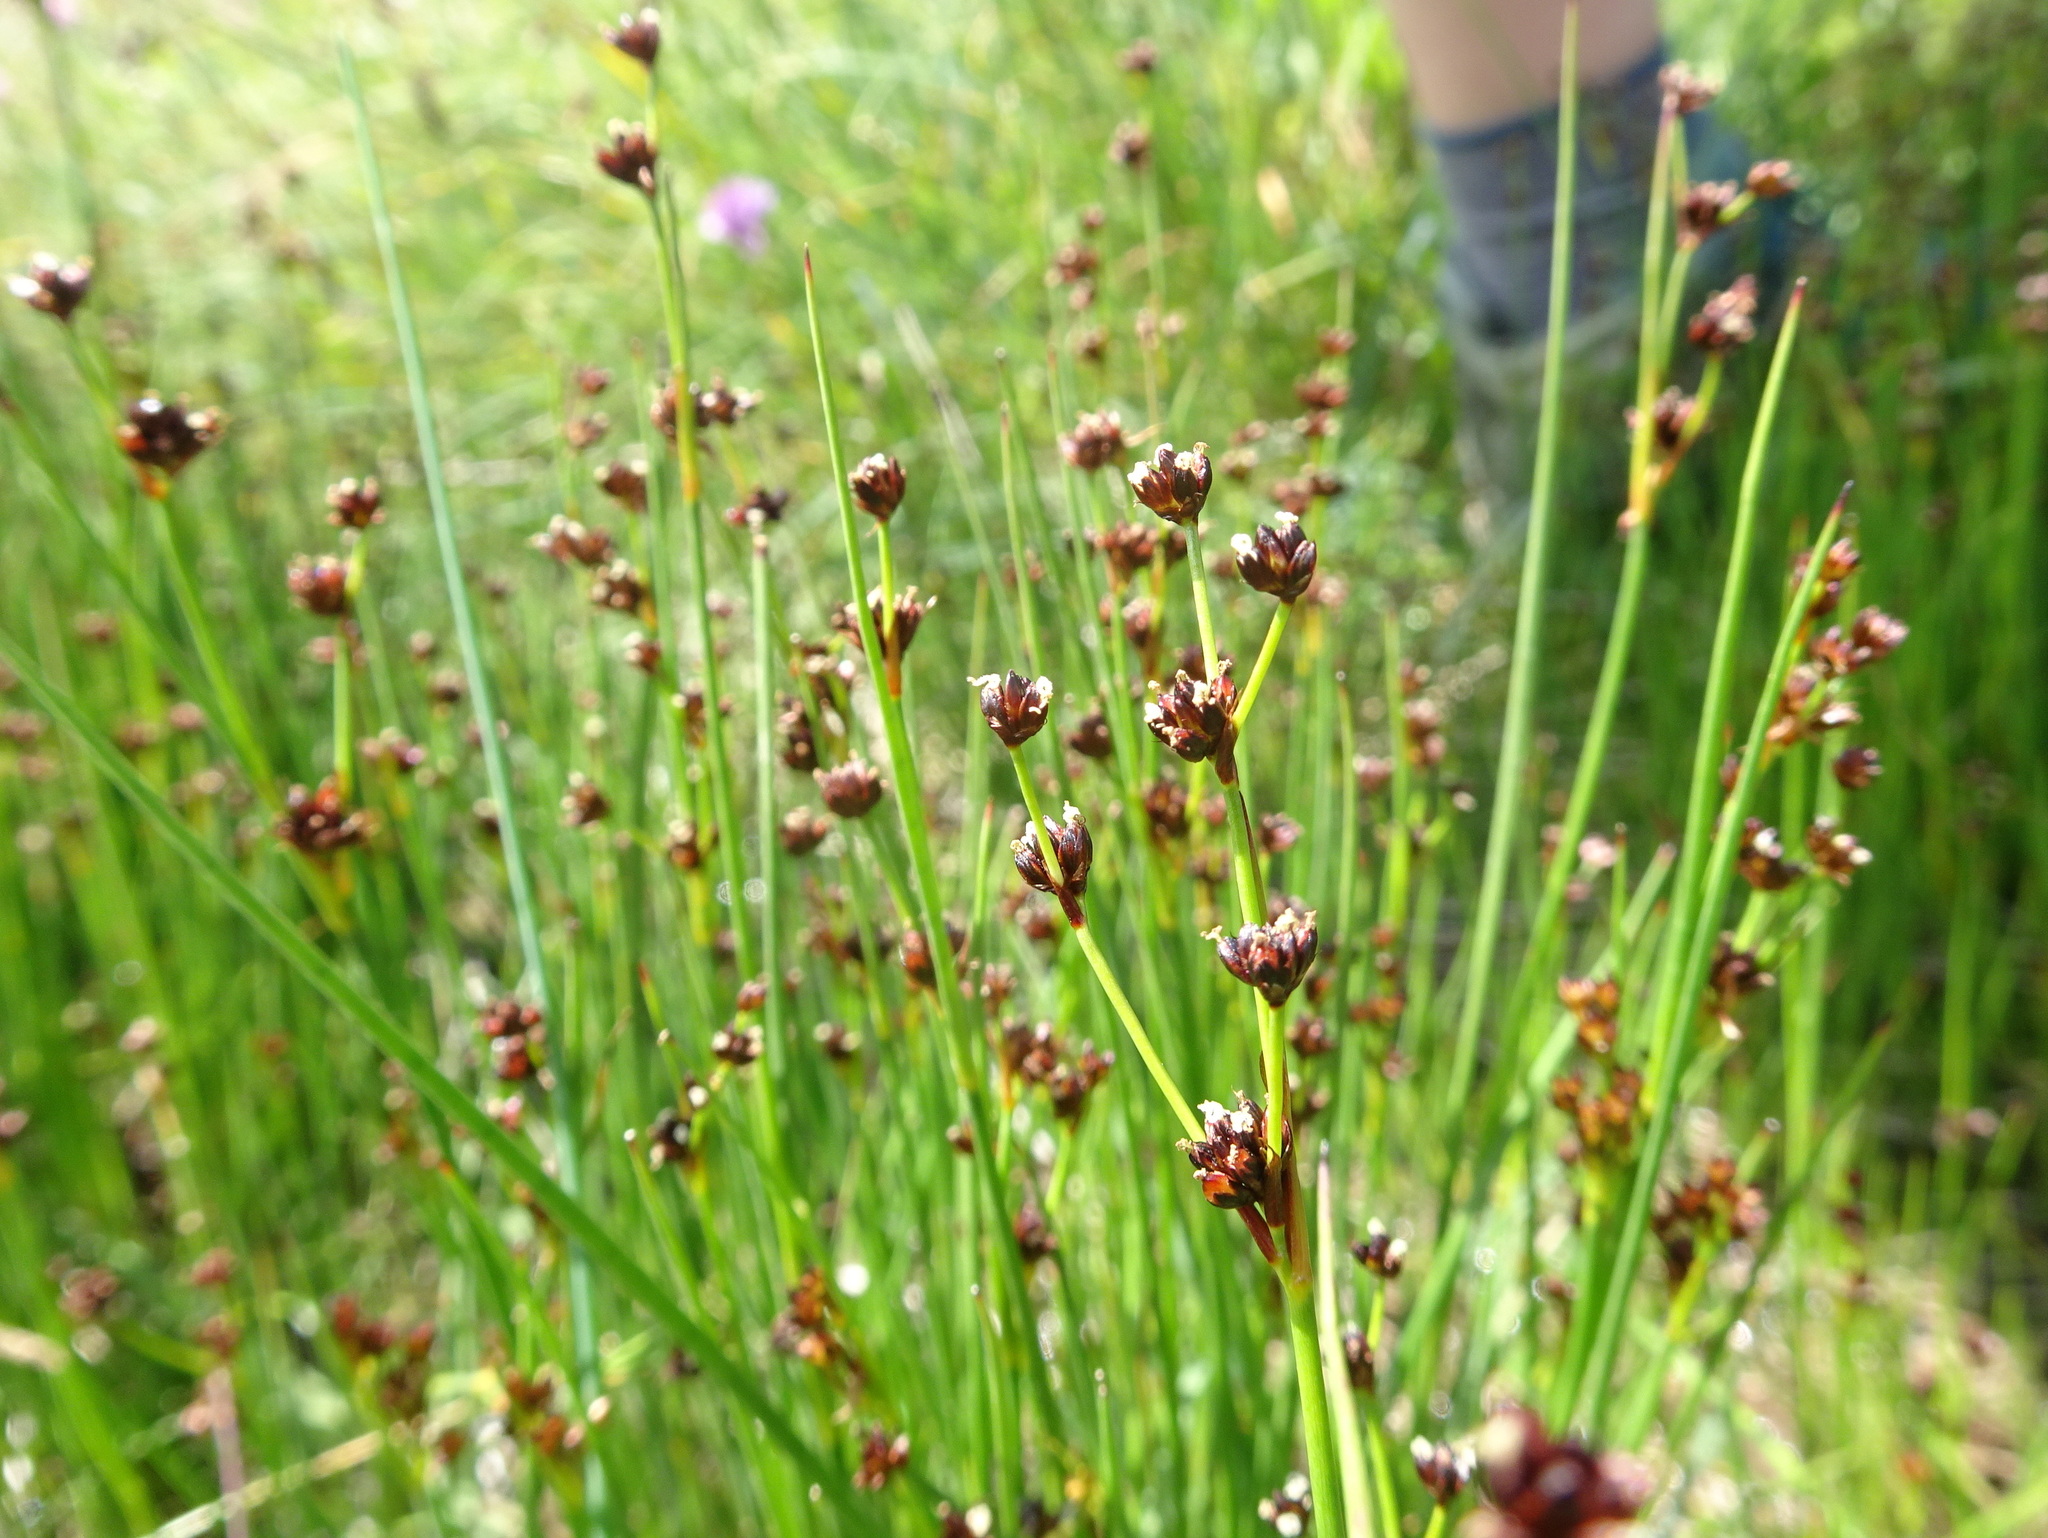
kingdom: Plantae
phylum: Tracheophyta
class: Liliopsida
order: Poales
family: Juncaceae
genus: Juncus
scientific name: Juncus alpinoarticulatus
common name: Alpine rush
